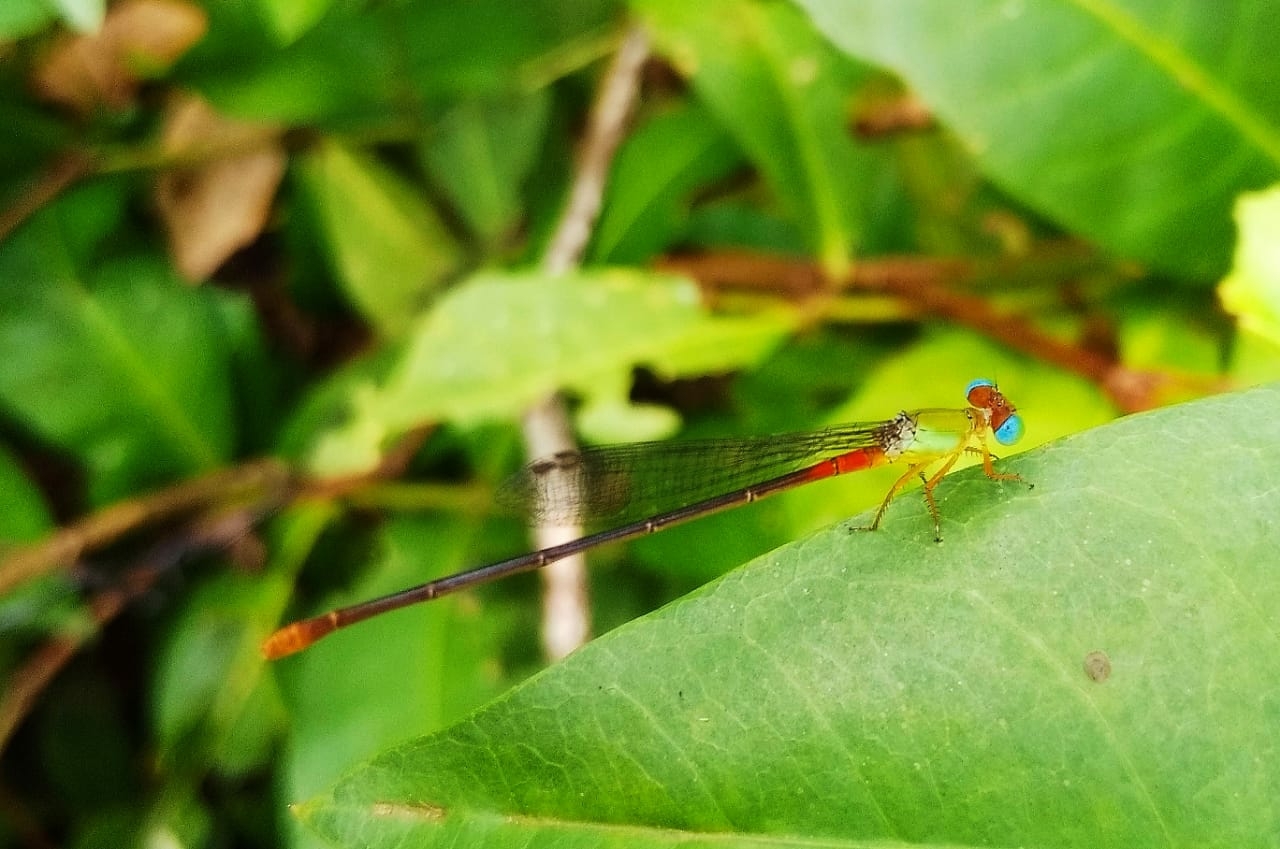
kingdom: Animalia
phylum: Arthropoda
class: Insecta
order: Odonata
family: Coenagrionidae
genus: Ceriagrion
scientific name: Ceriagrion cerinorubellum
